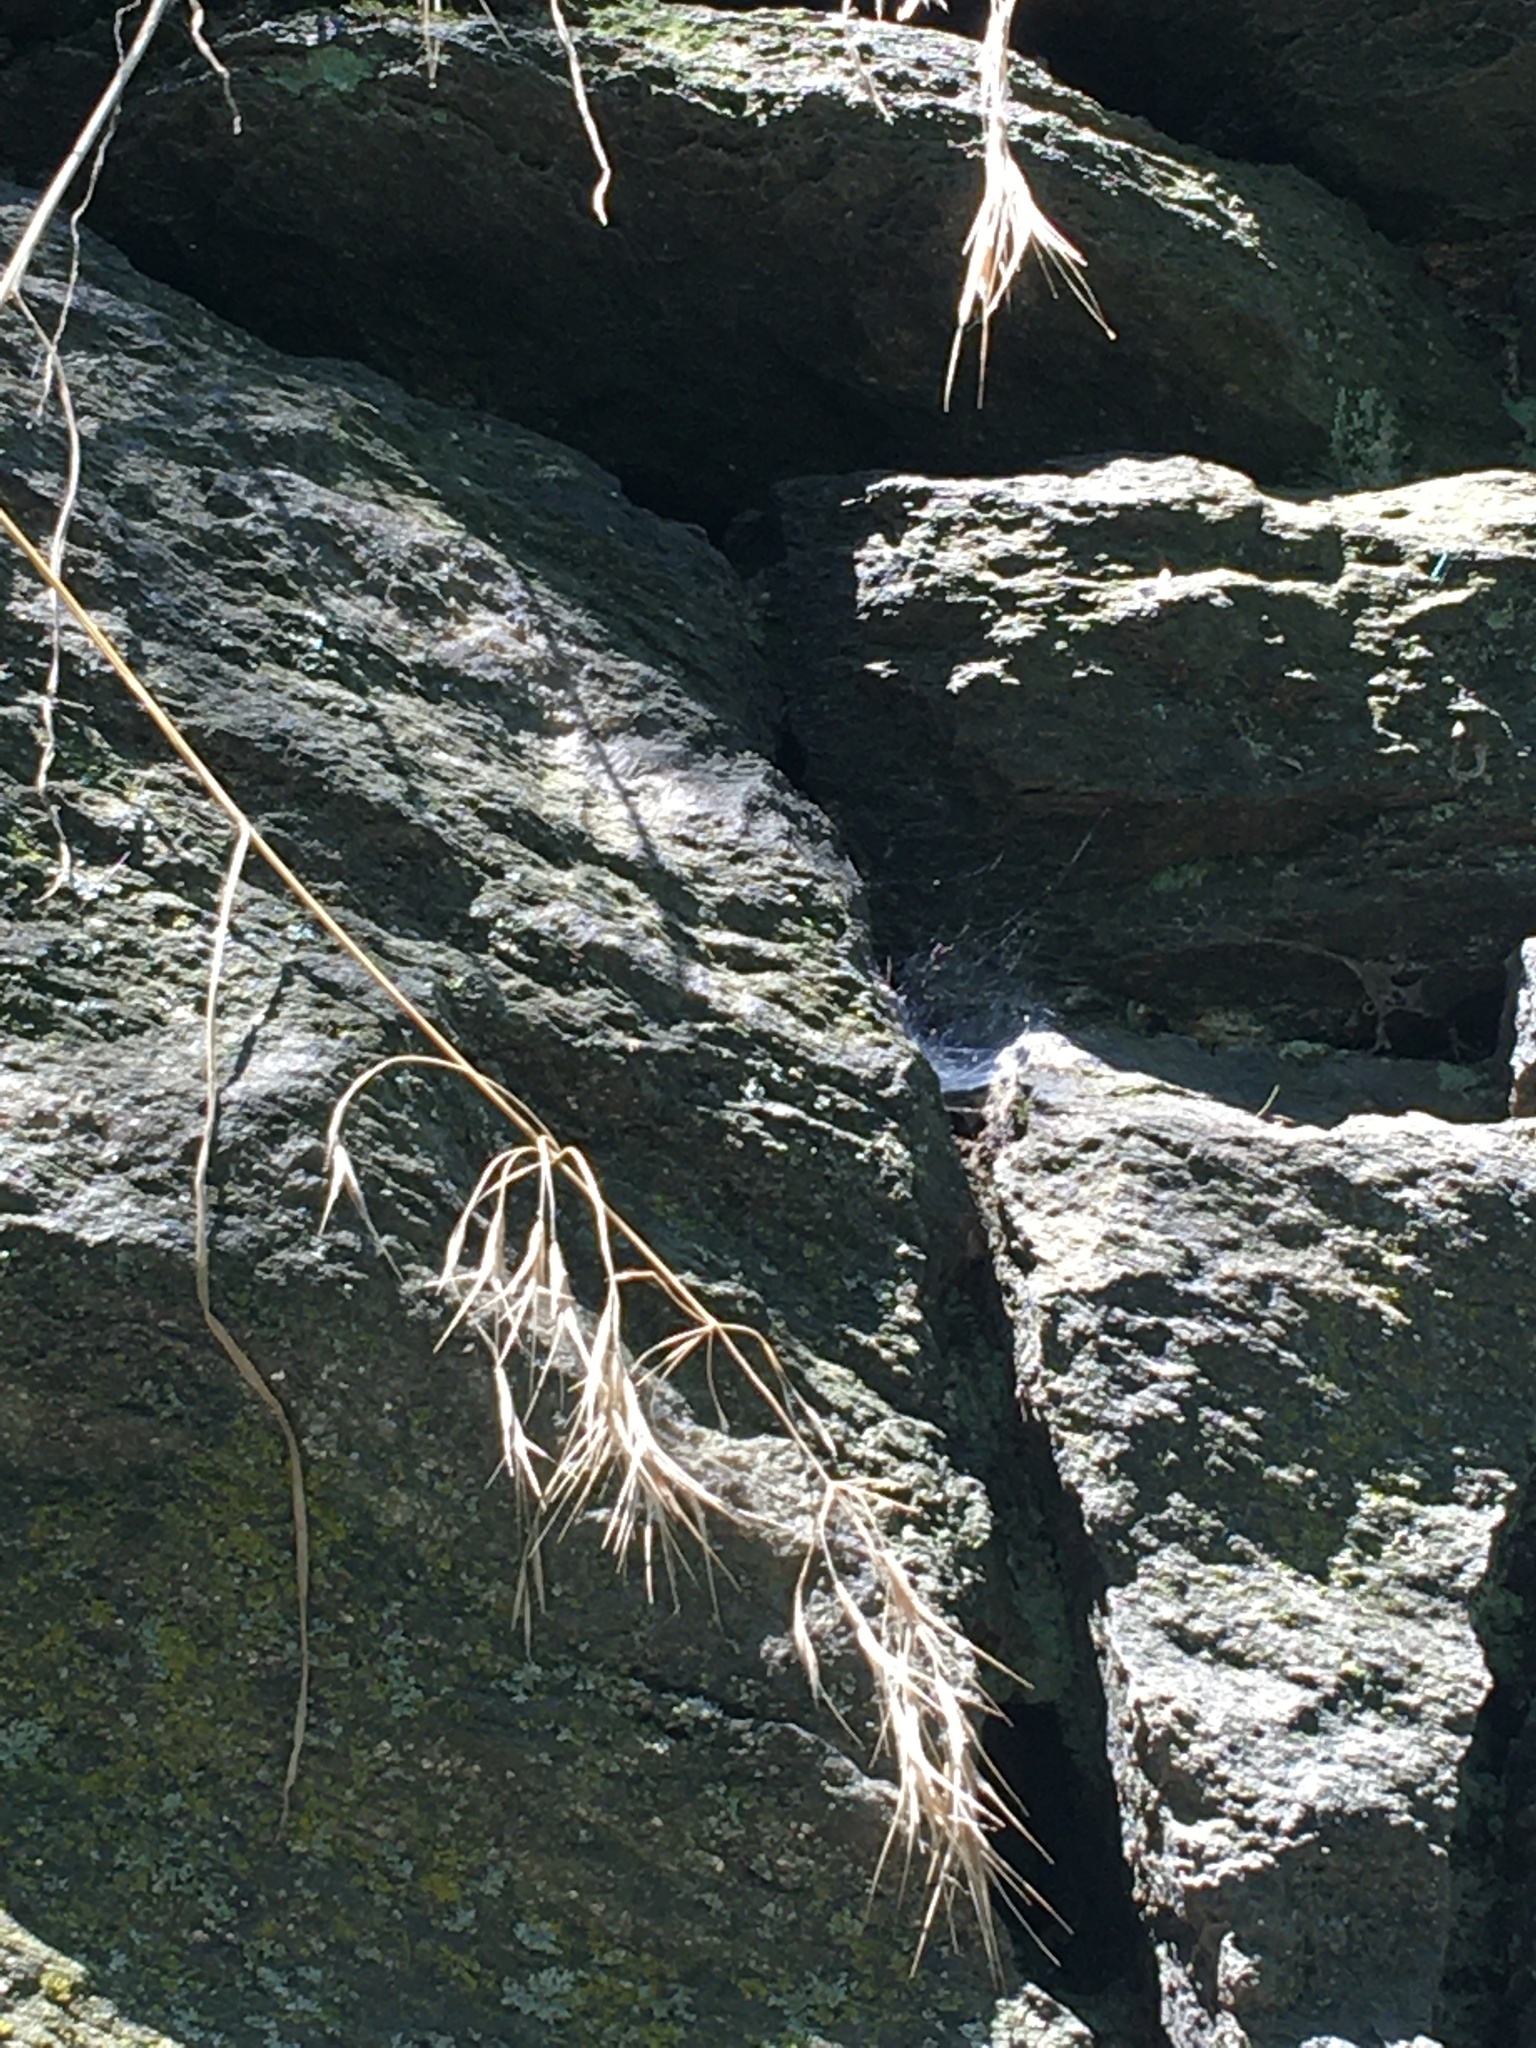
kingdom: Plantae
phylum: Tracheophyta
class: Liliopsida
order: Poales
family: Poaceae
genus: Bromus
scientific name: Bromus tectorum
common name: Cheatgrass
